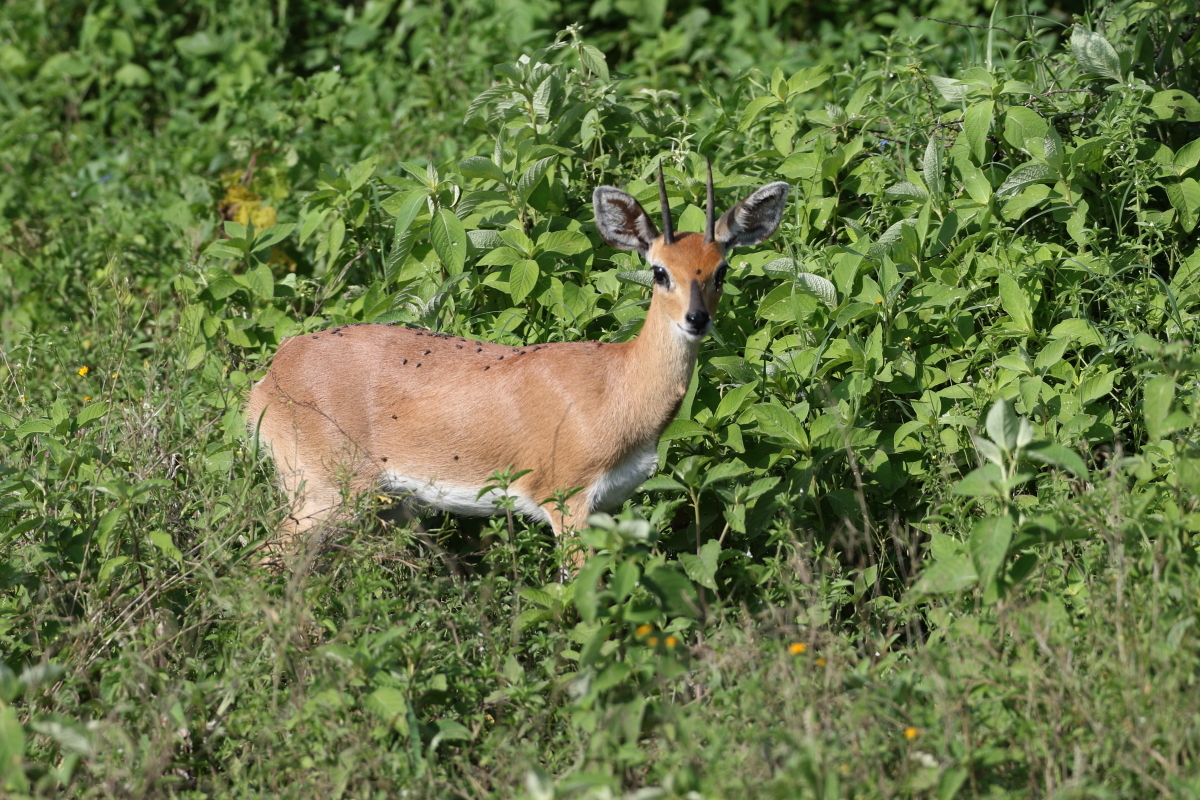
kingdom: Animalia
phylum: Chordata
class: Mammalia
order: Artiodactyla
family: Bovidae
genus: Raphicerus
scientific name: Raphicerus campestris
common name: Steenbok
